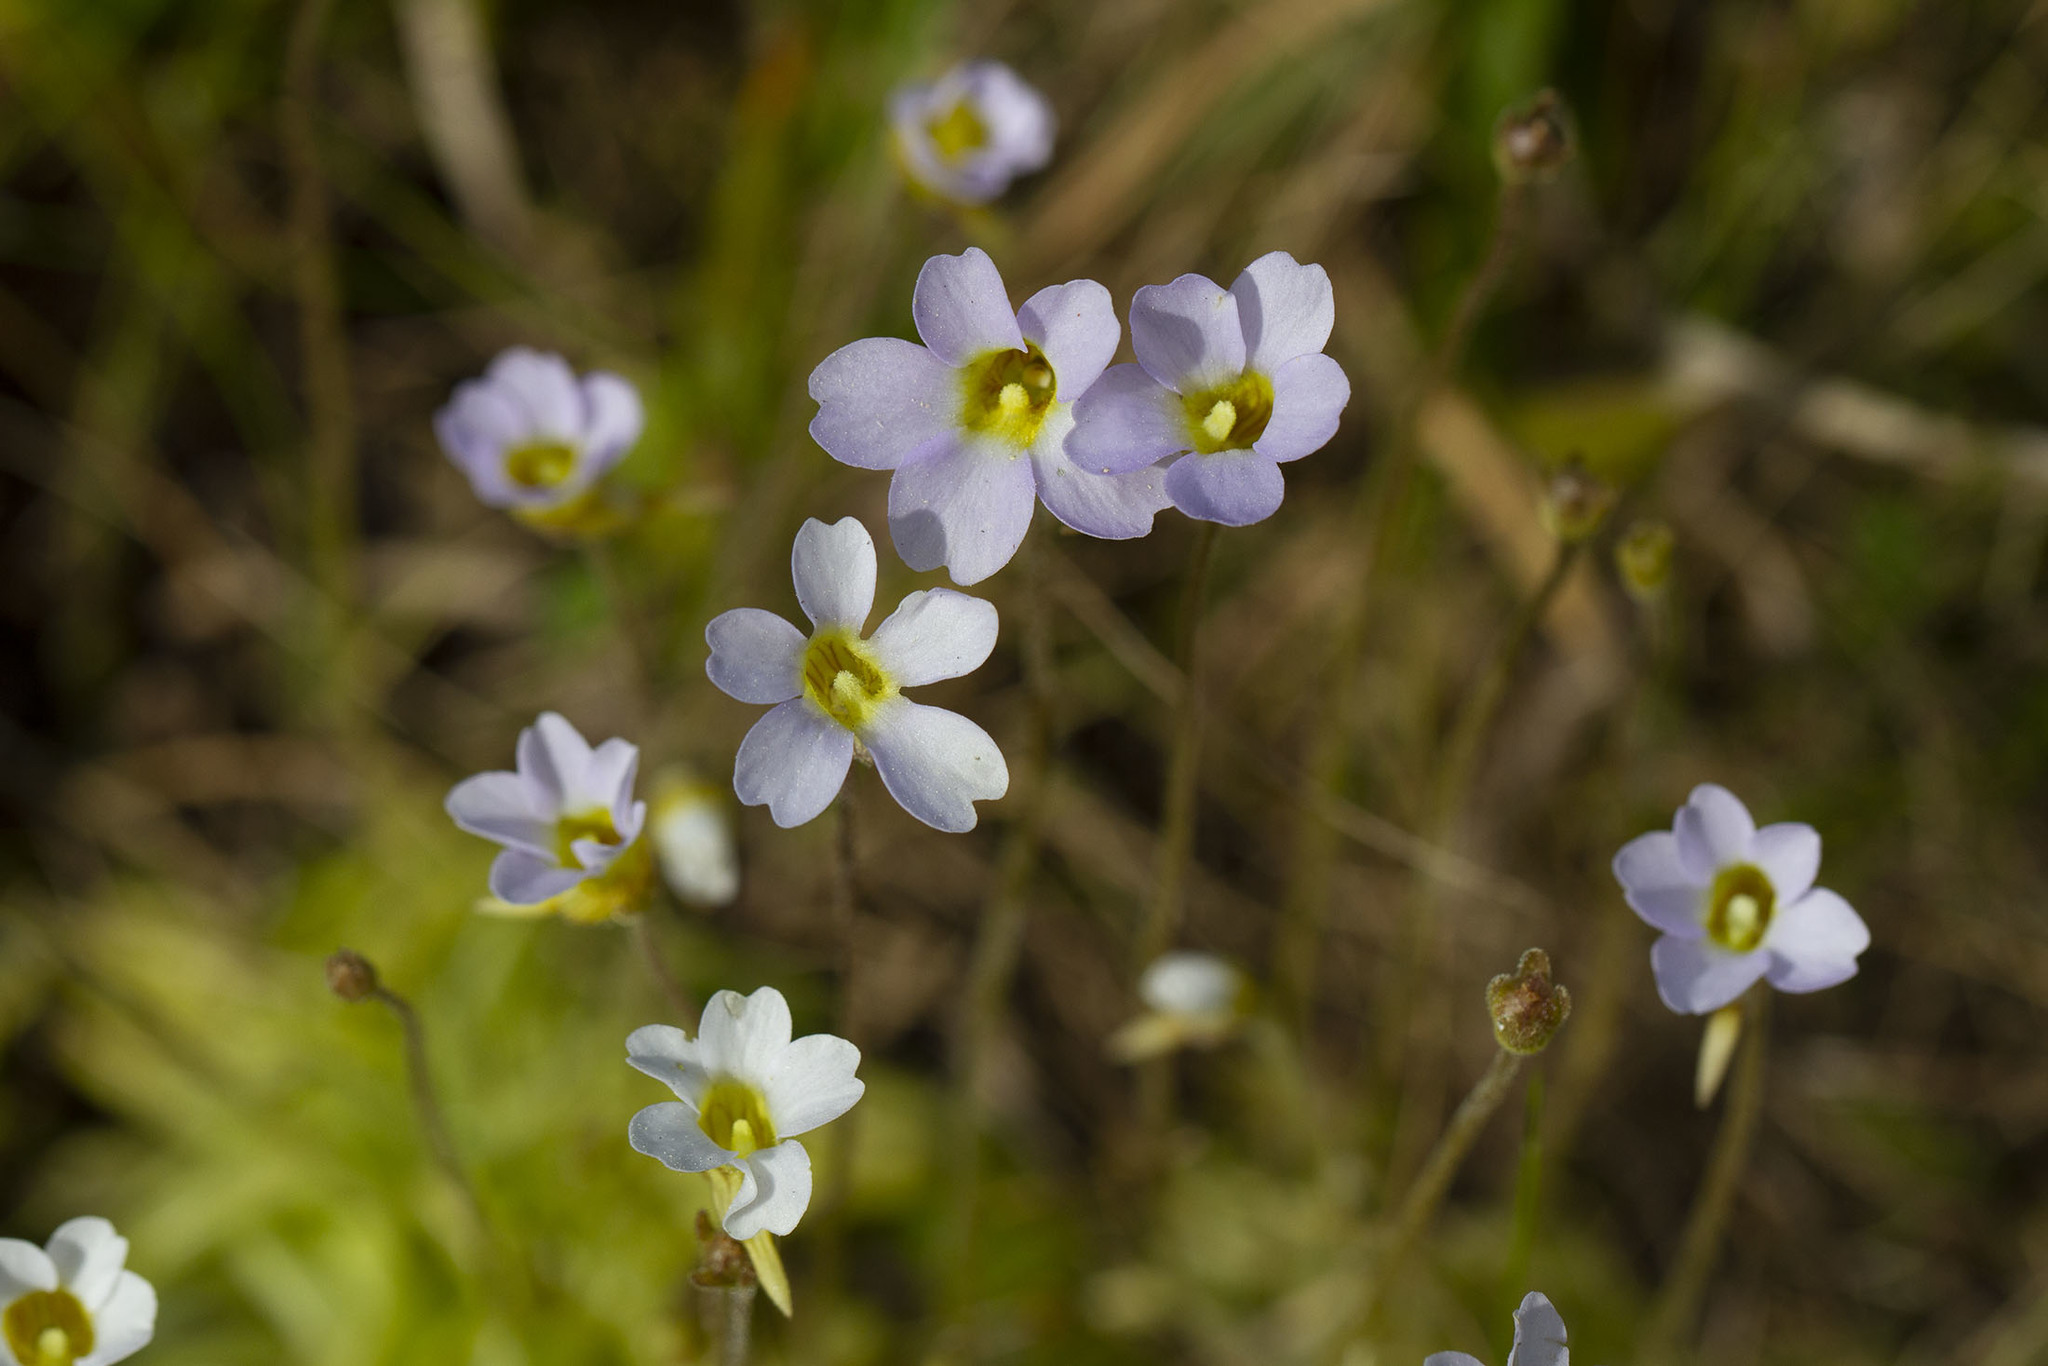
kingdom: Plantae
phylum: Tracheophyta
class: Magnoliopsida
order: Lamiales
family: Lentibulariaceae
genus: Pinguicula
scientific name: Pinguicula pumila
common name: Small butterwort
